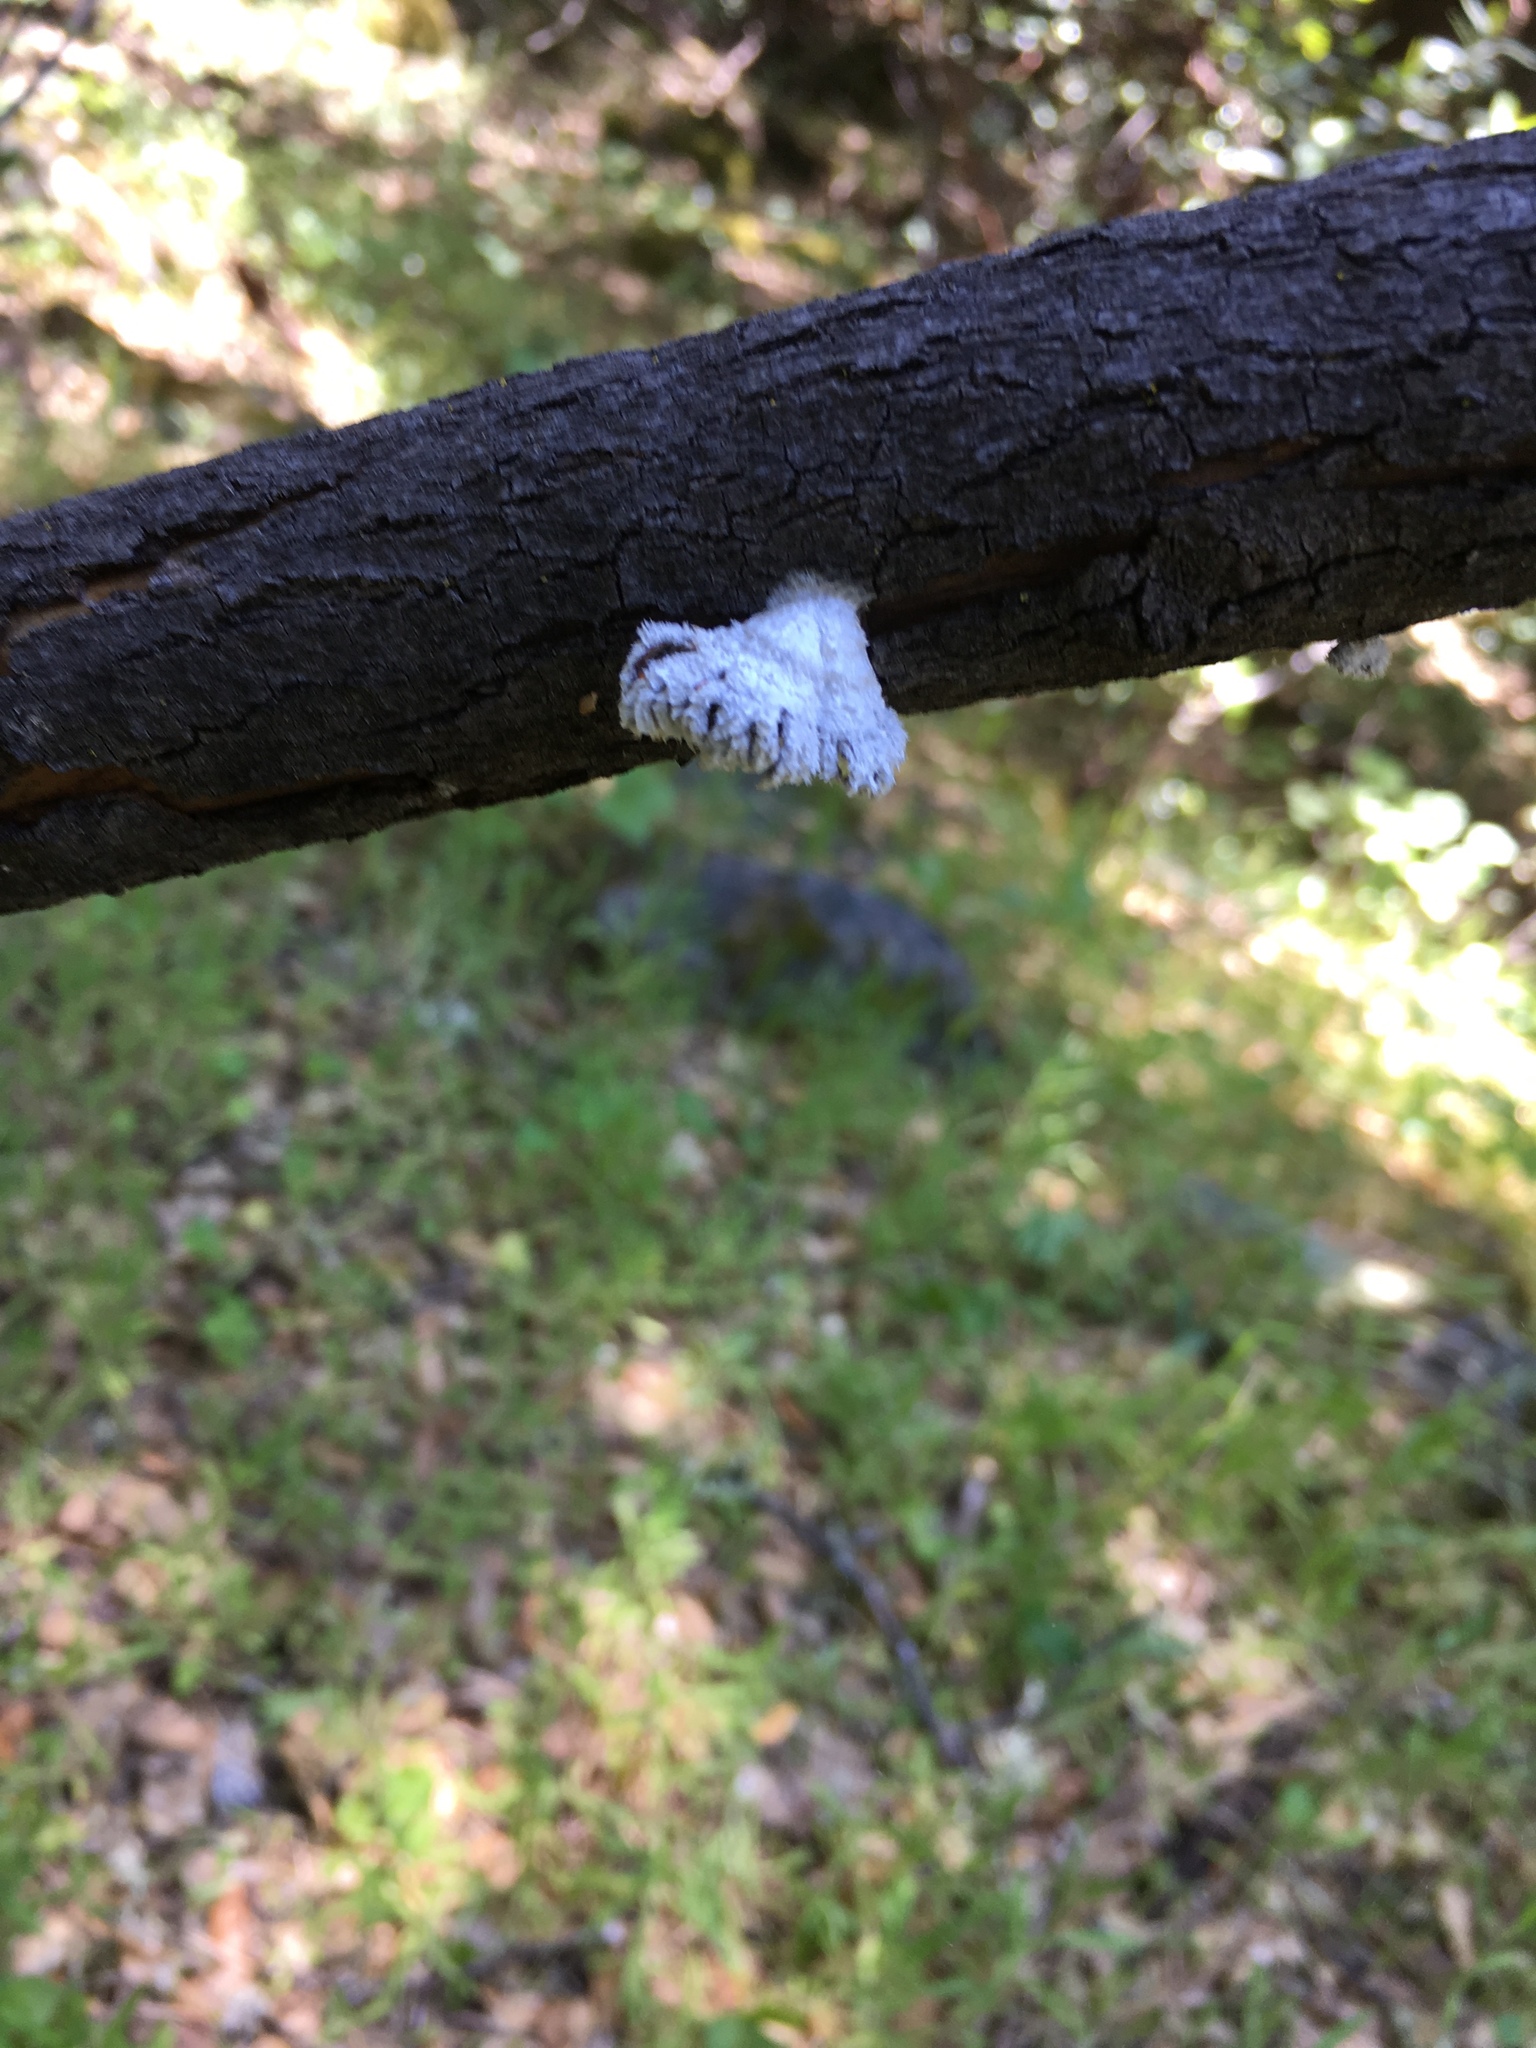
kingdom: Fungi
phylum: Basidiomycota
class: Agaricomycetes
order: Agaricales
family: Schizophyllaceae
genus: Schizophyllum
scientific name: Schizophyllum commune
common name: Common porecrust
